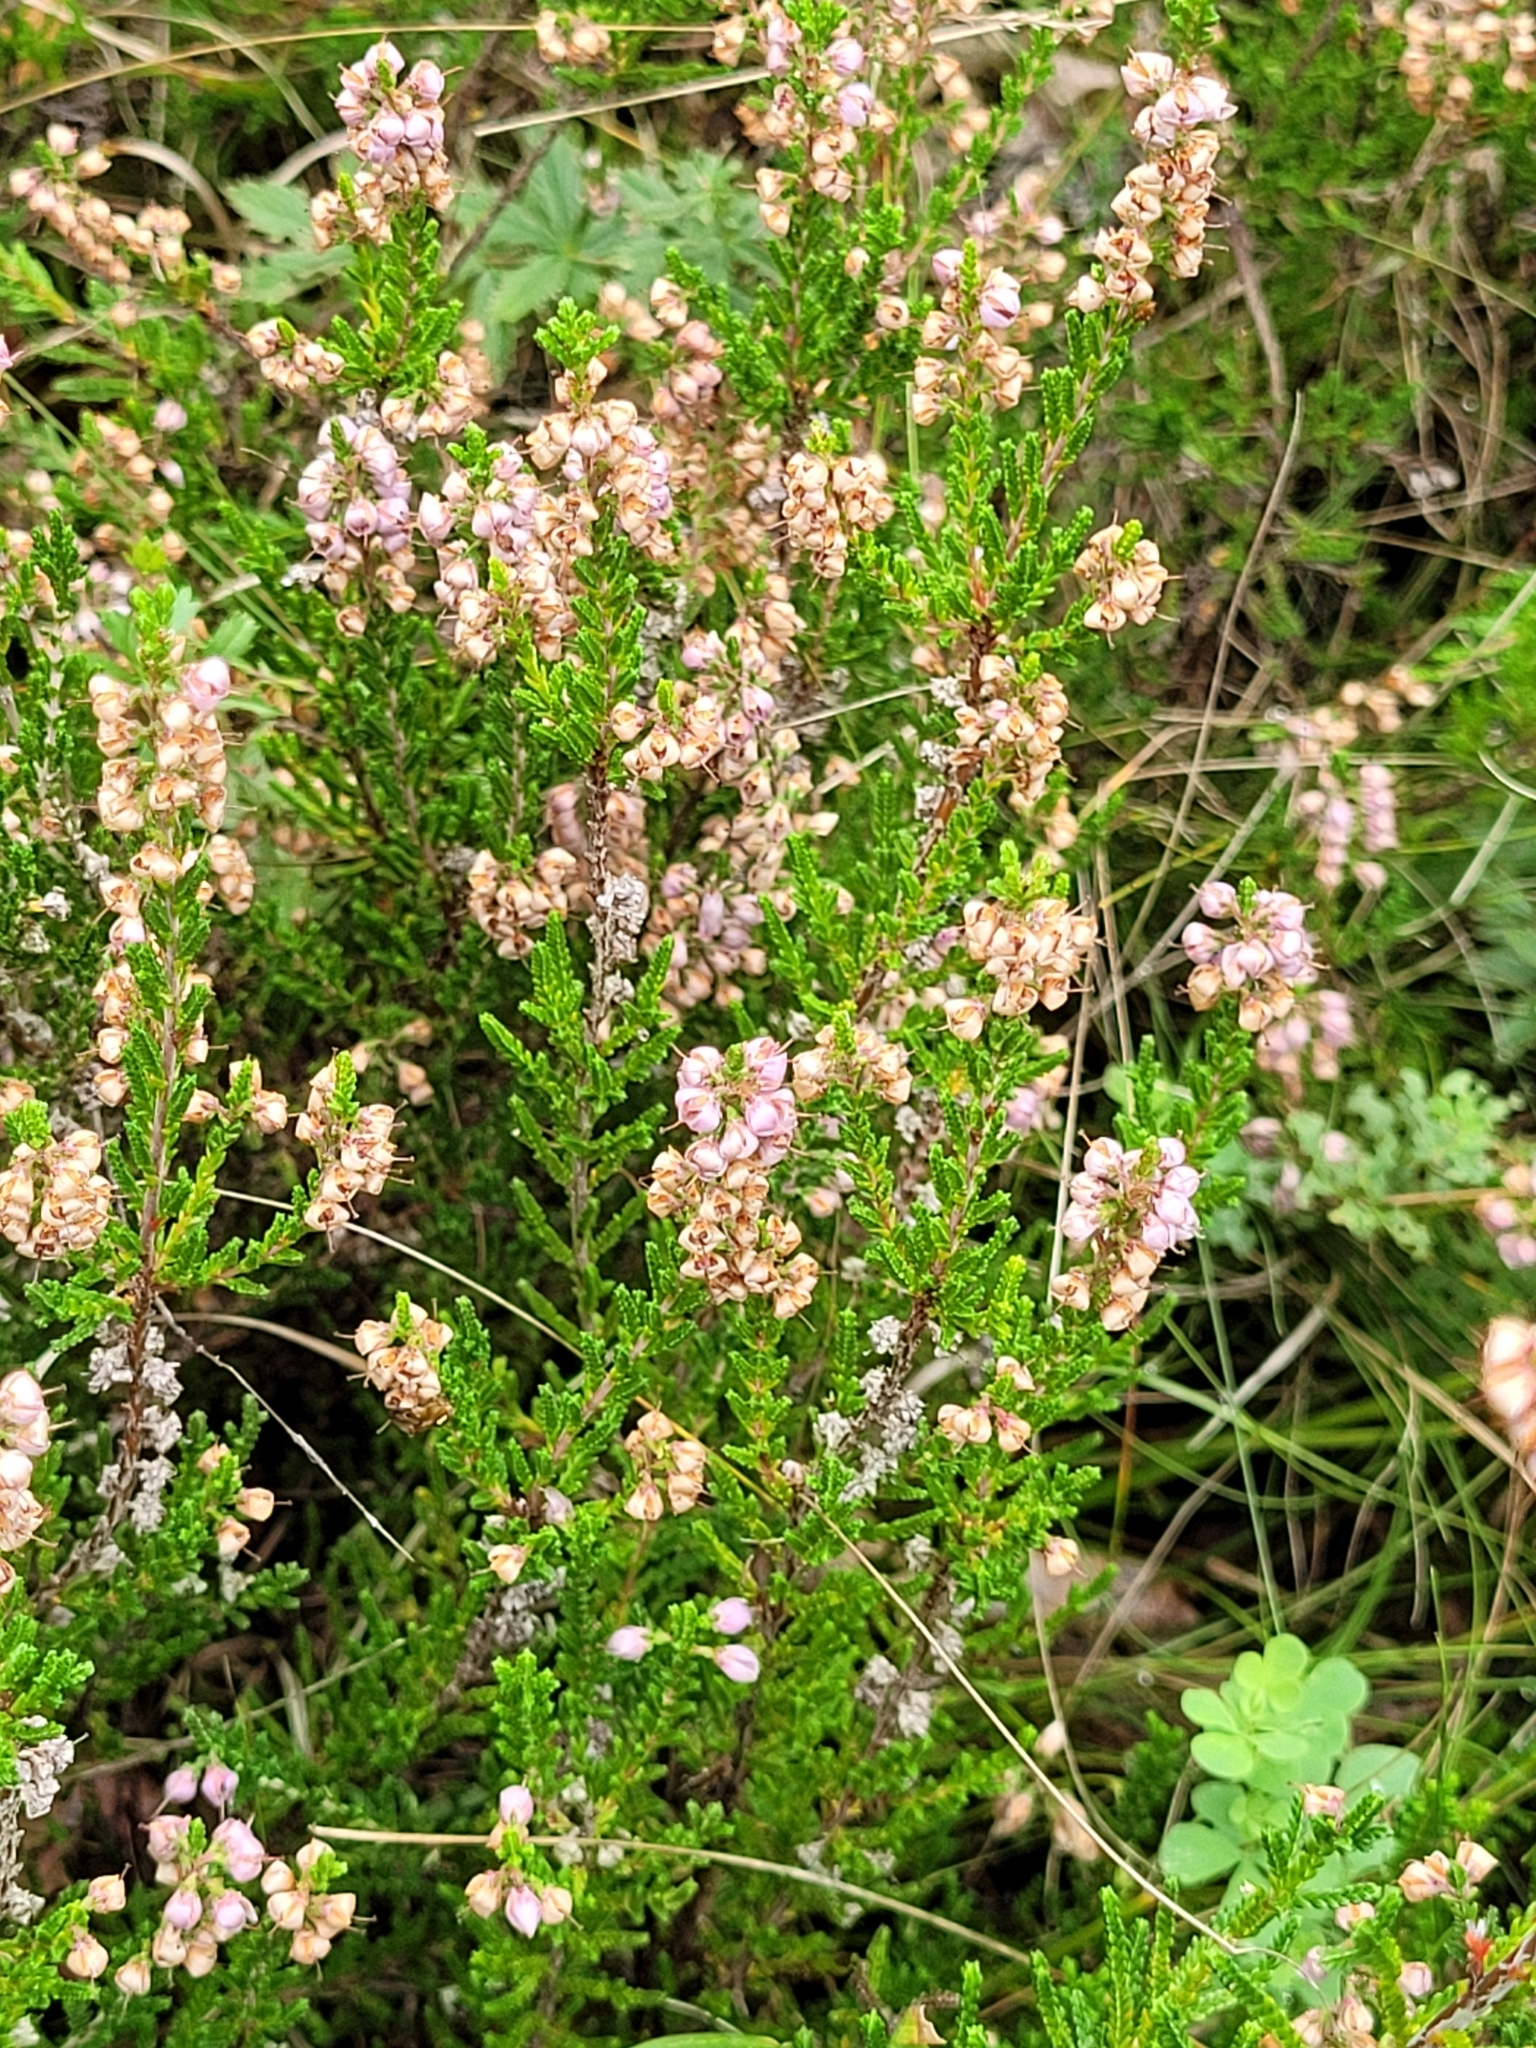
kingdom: Plantae
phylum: Tracheophyta
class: Magnoliopsida
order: Ericales
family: Ericaceae
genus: Calluna
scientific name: Calluna vulgaris
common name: Heather
